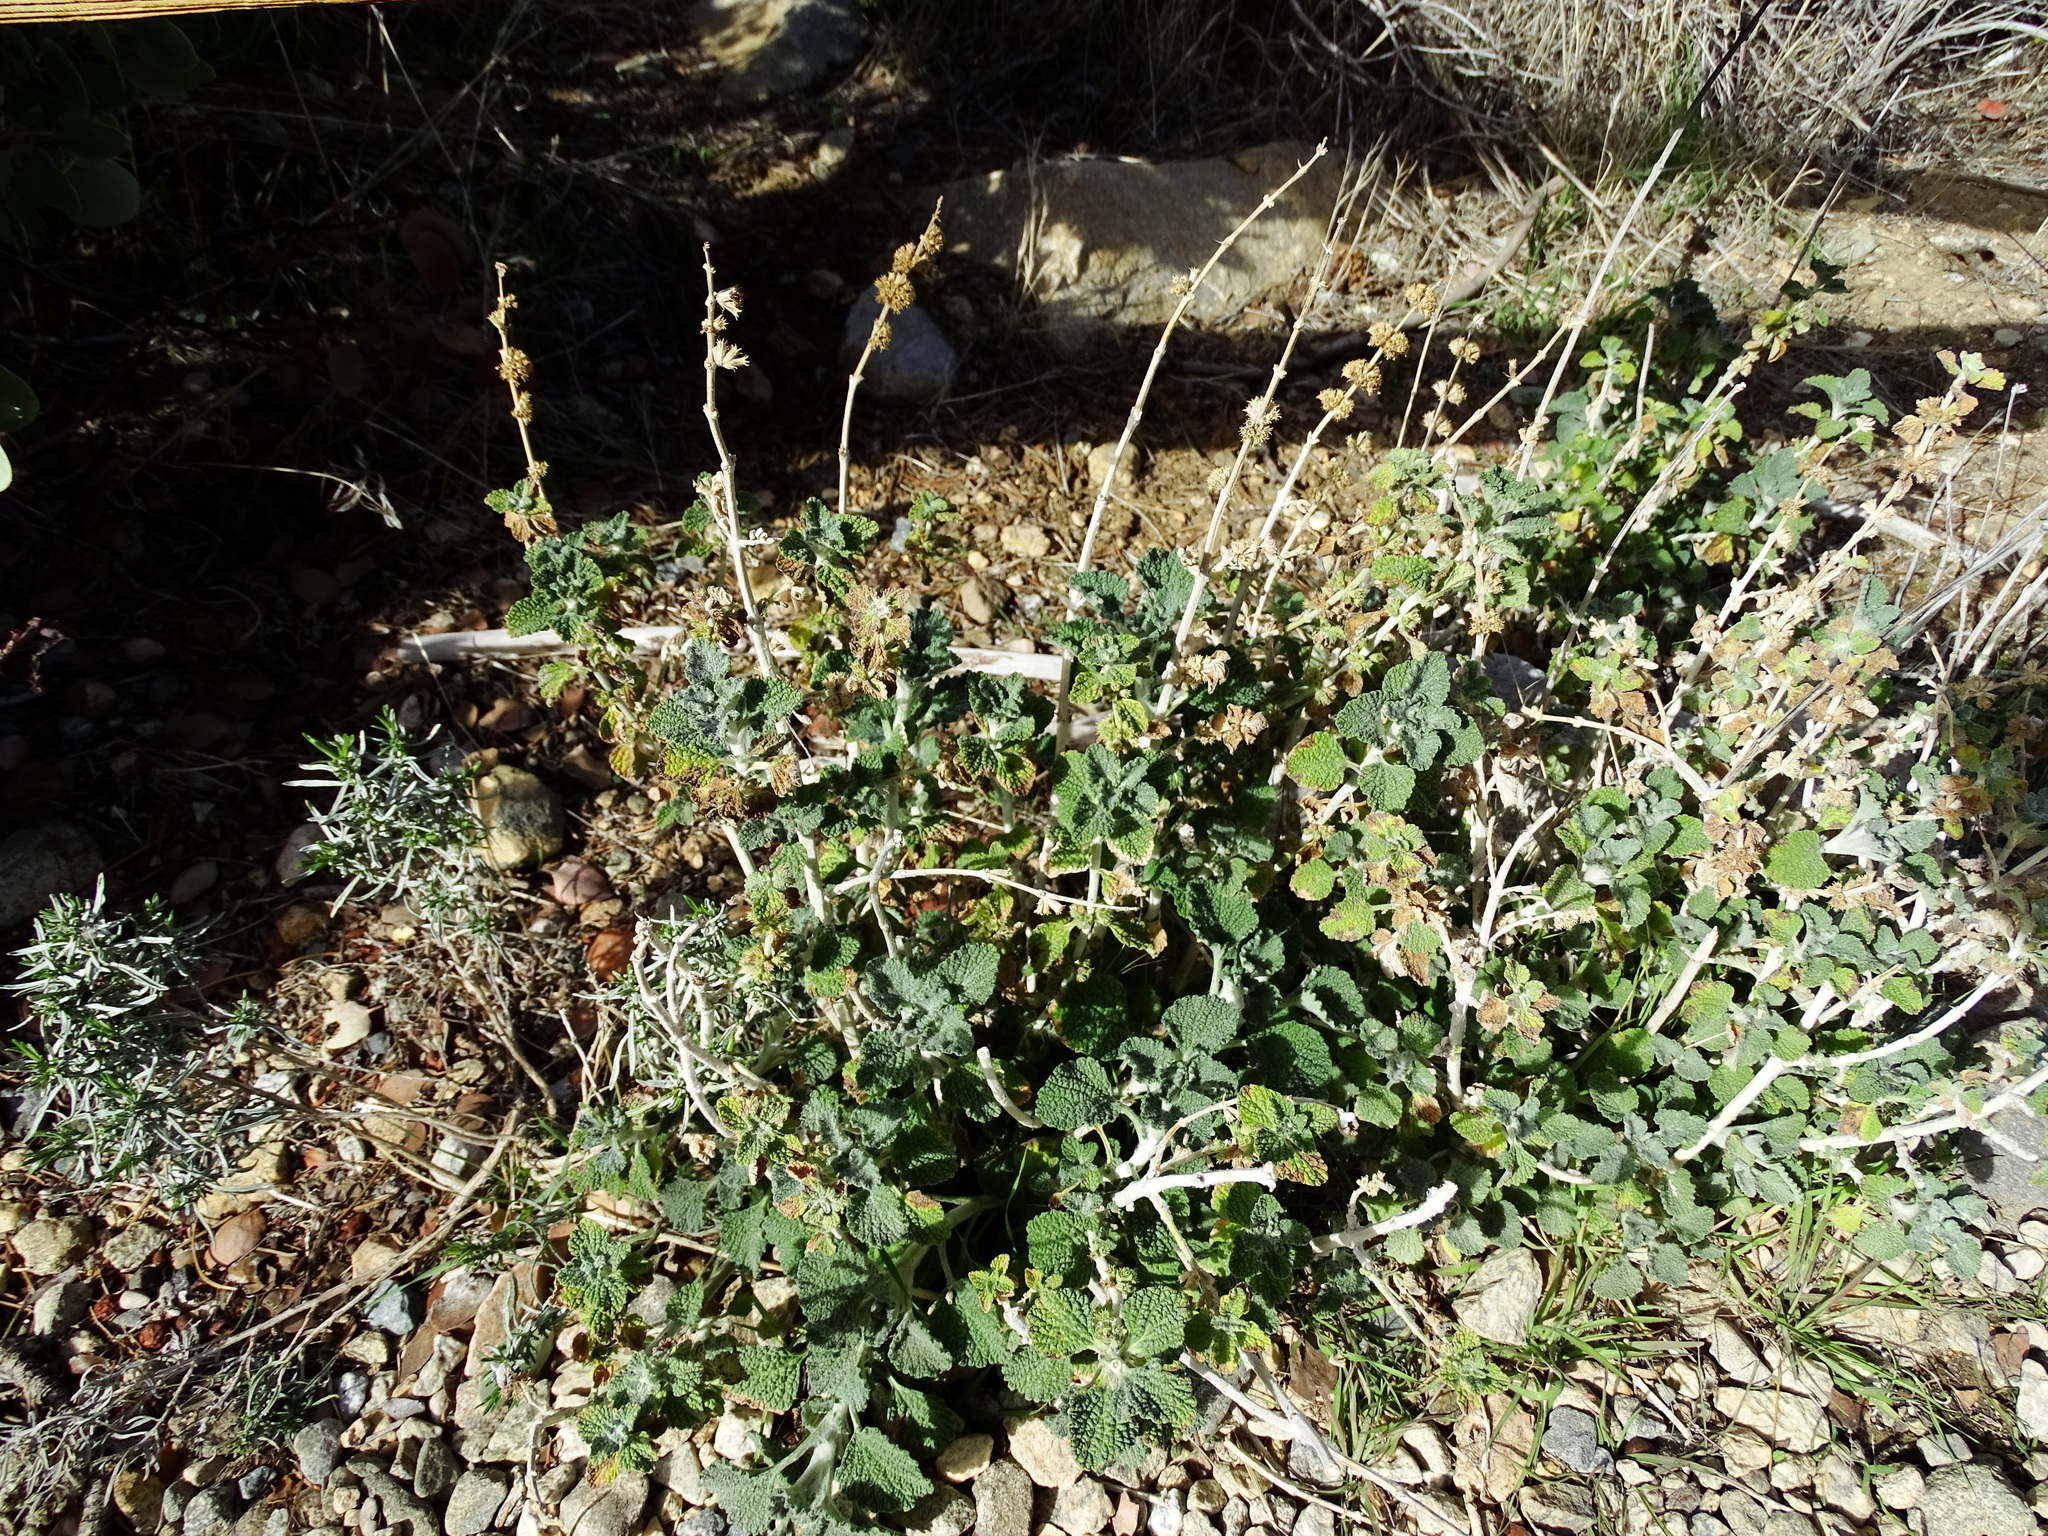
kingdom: Plantae
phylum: Tracheophyta
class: Magnoliopsida
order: Lamiales
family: Lamiaceae
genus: Marrubium
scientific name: Marrubium vulgare
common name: Horehound
